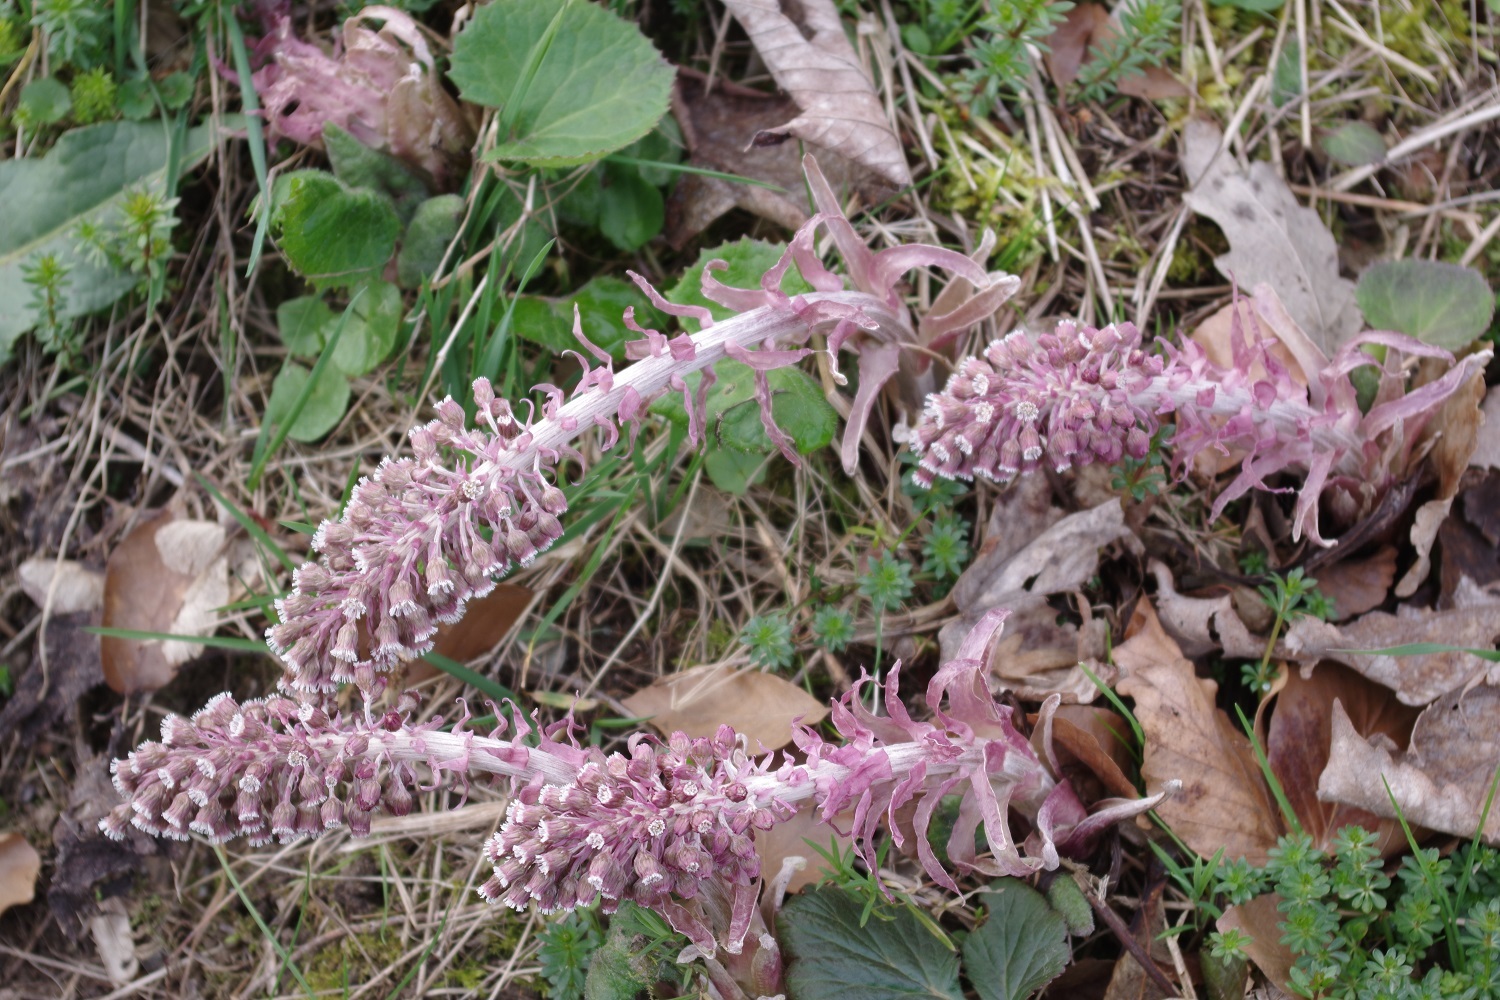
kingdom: Plantae
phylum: Tracheophyta
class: Magnoliopsida
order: Asterales
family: Asteraceae
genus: Petasites
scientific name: Petasites hybridus
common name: Butterbur
